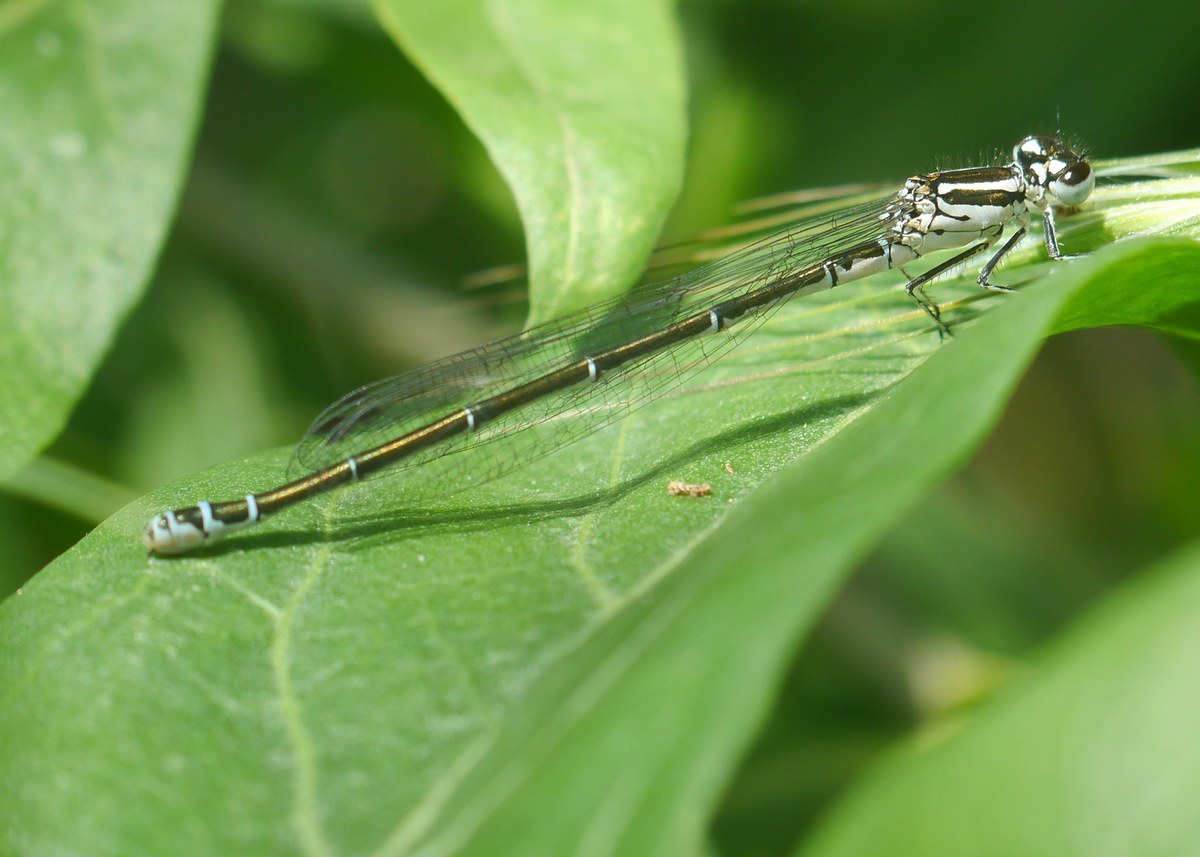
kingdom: Animalia
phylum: Arthropoda
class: Insecta
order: Odonata
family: Coenagrionidae
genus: Coenagrion
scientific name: Coenagrion puella
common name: Azure damselfly
